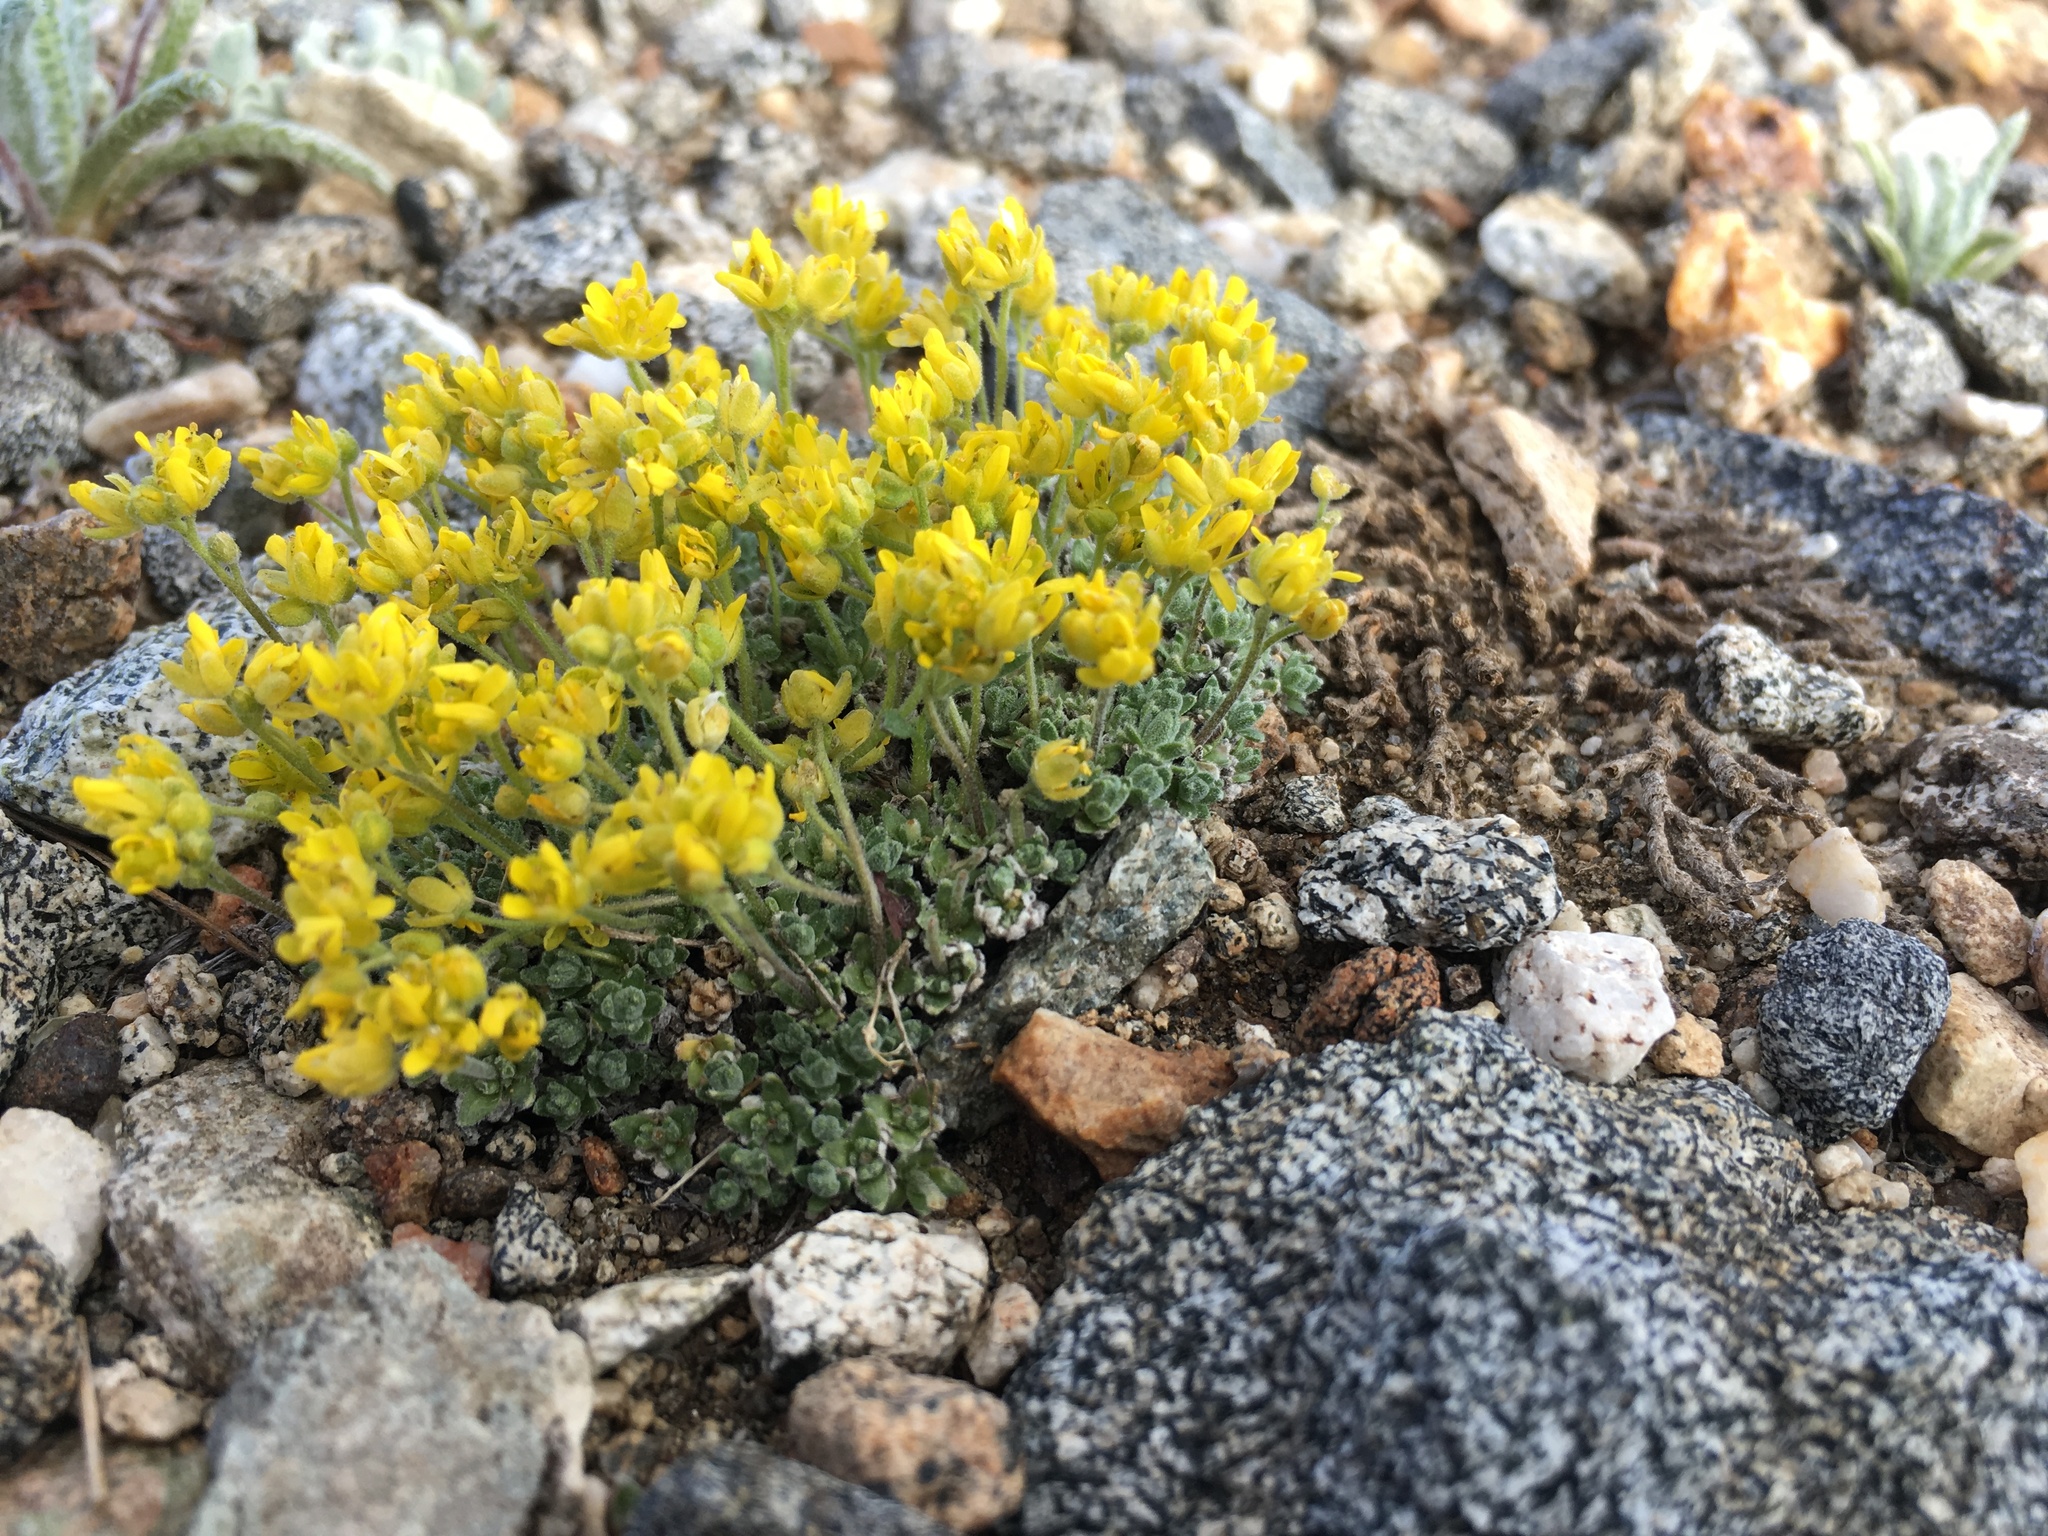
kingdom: Plantae
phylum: Tracheophyta
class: Magnoliopsida
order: Brassicales
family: Brassicaceae
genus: Draba
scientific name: Draba subumbellata
